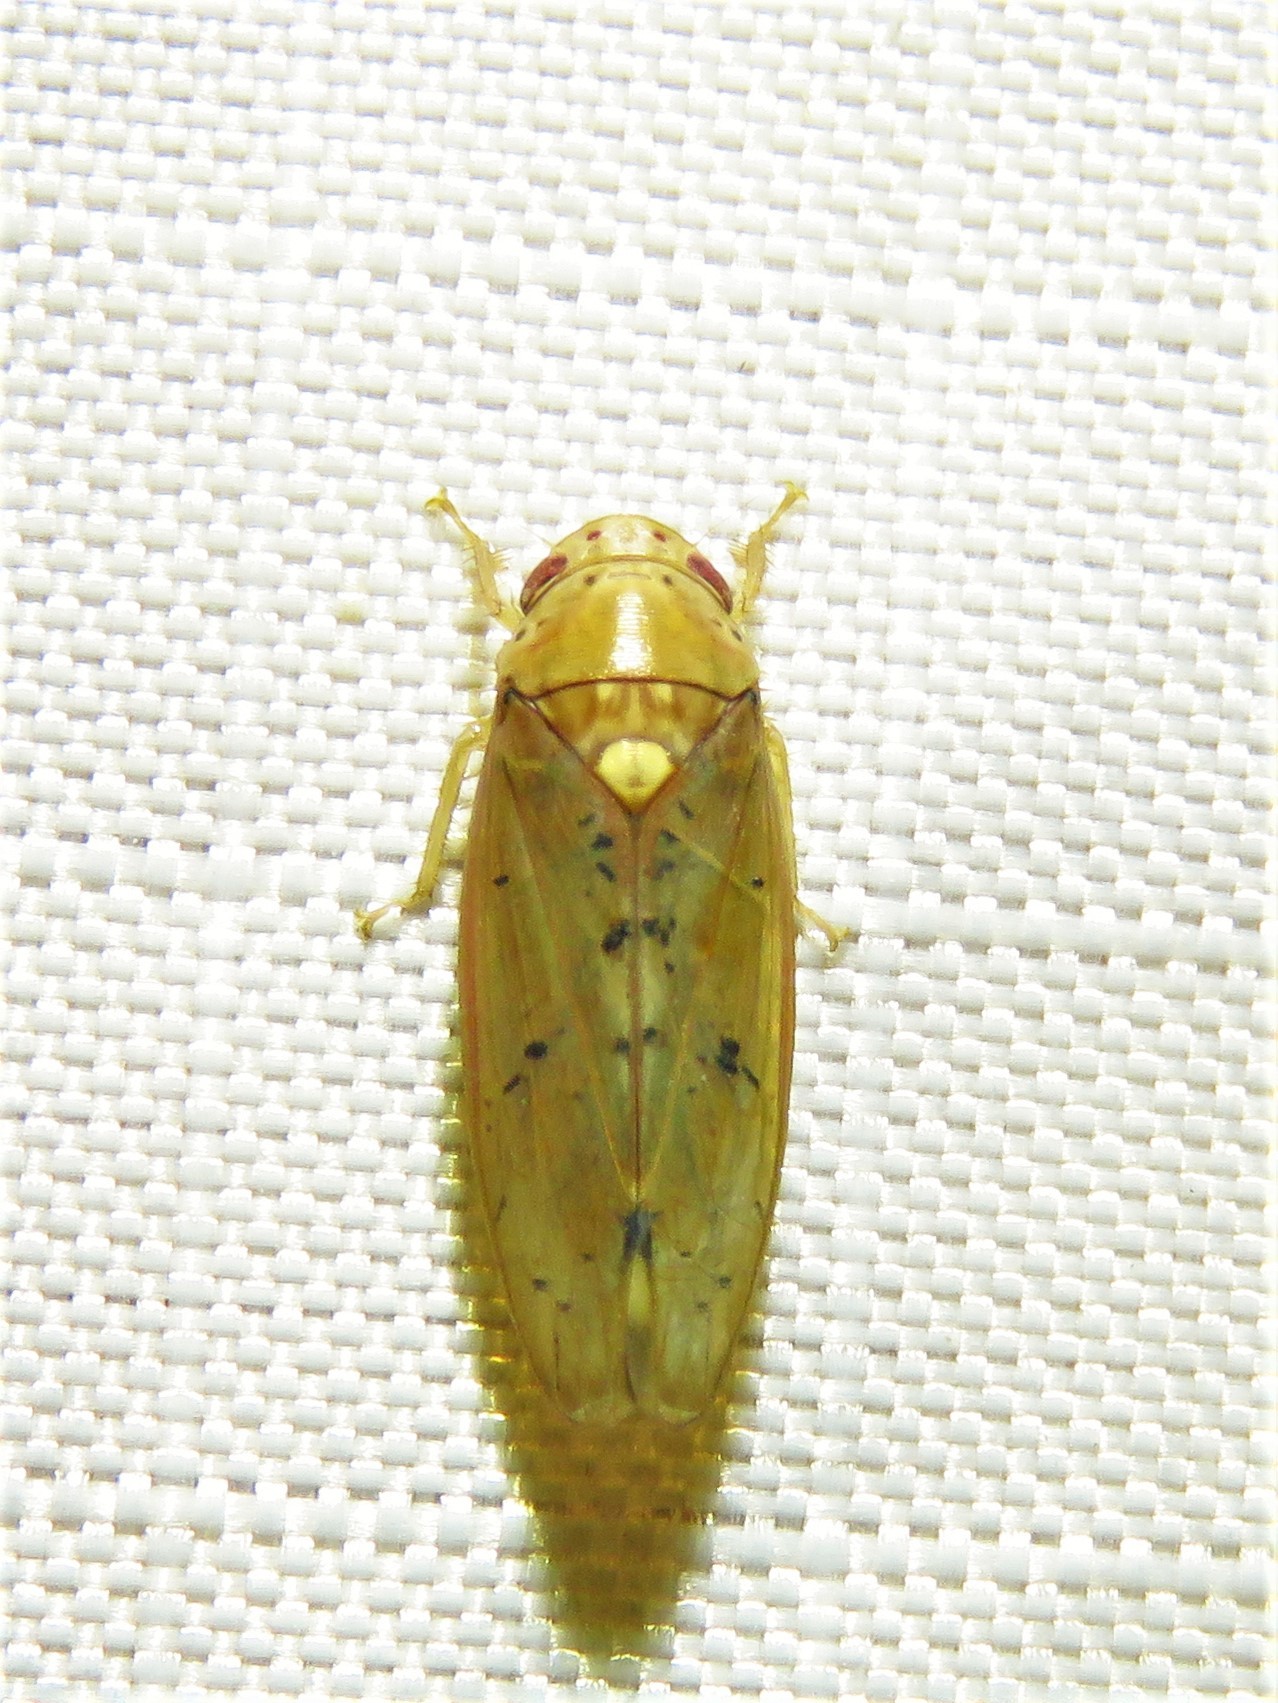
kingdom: Animalia
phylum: Arthropoda
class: Insecta
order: Hemiptera
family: Cicadellidae
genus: Ponana
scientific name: Ponana quadralaba
